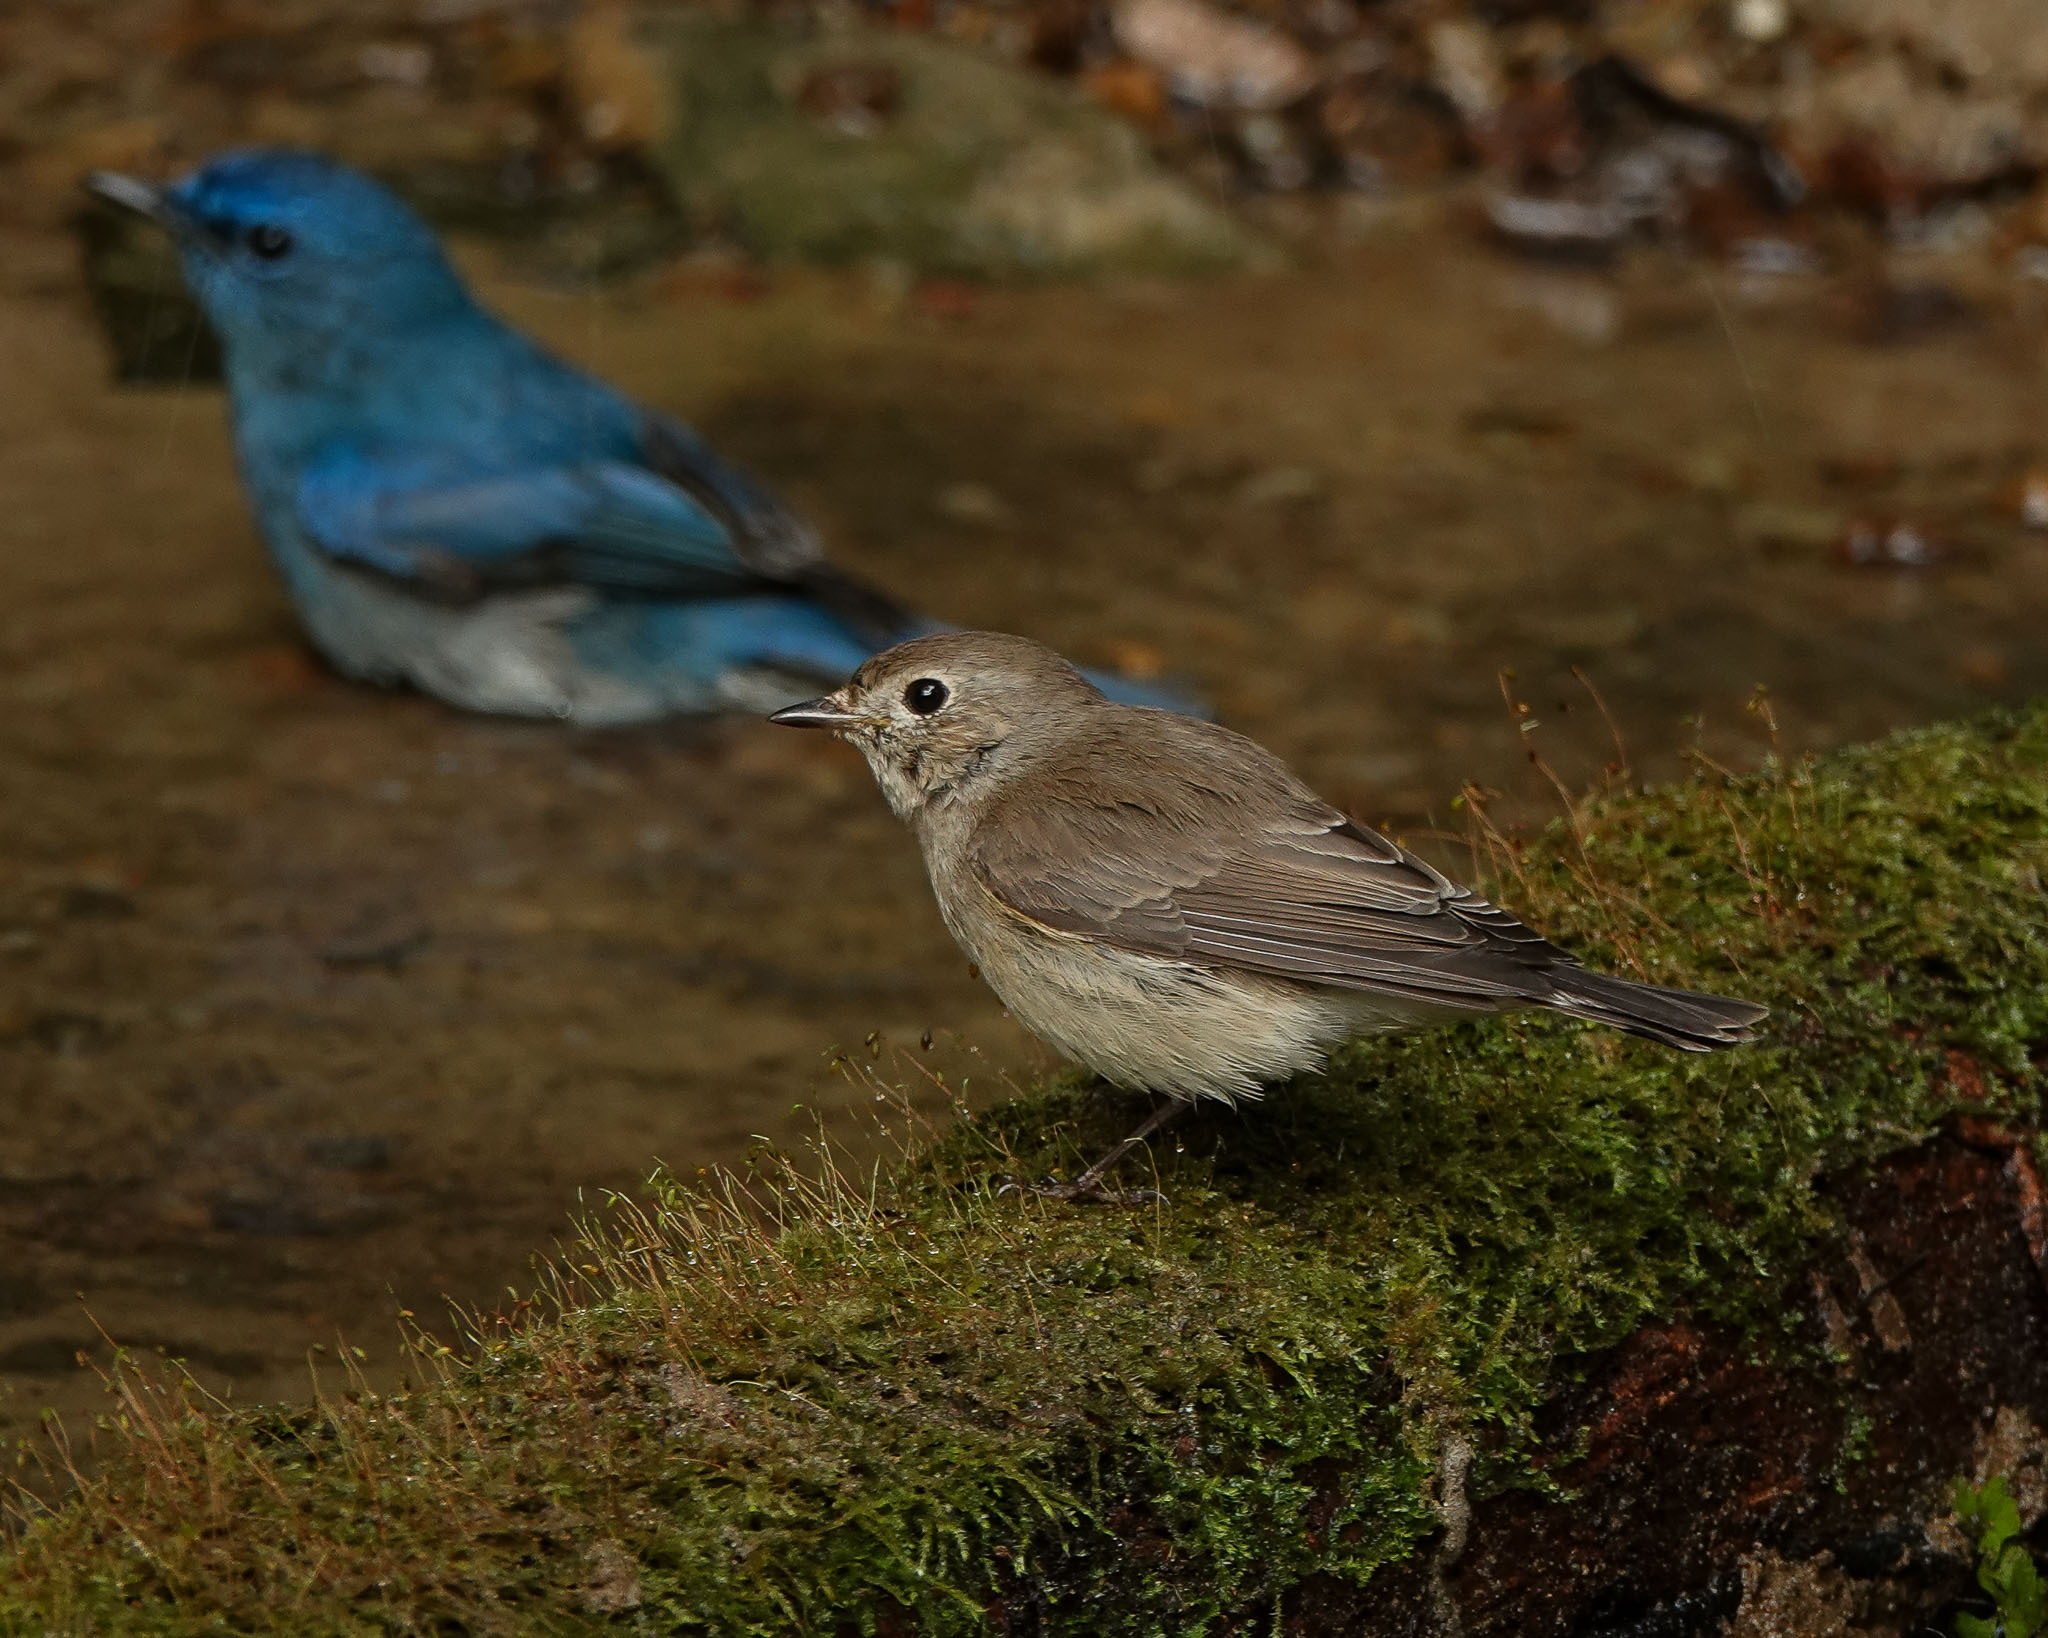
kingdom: Animalia
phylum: Chordata
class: Aves
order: Passeriformes
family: Muscicapidae
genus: Ficedula
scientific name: Ficedula albicilla
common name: Taiga flycatcher
